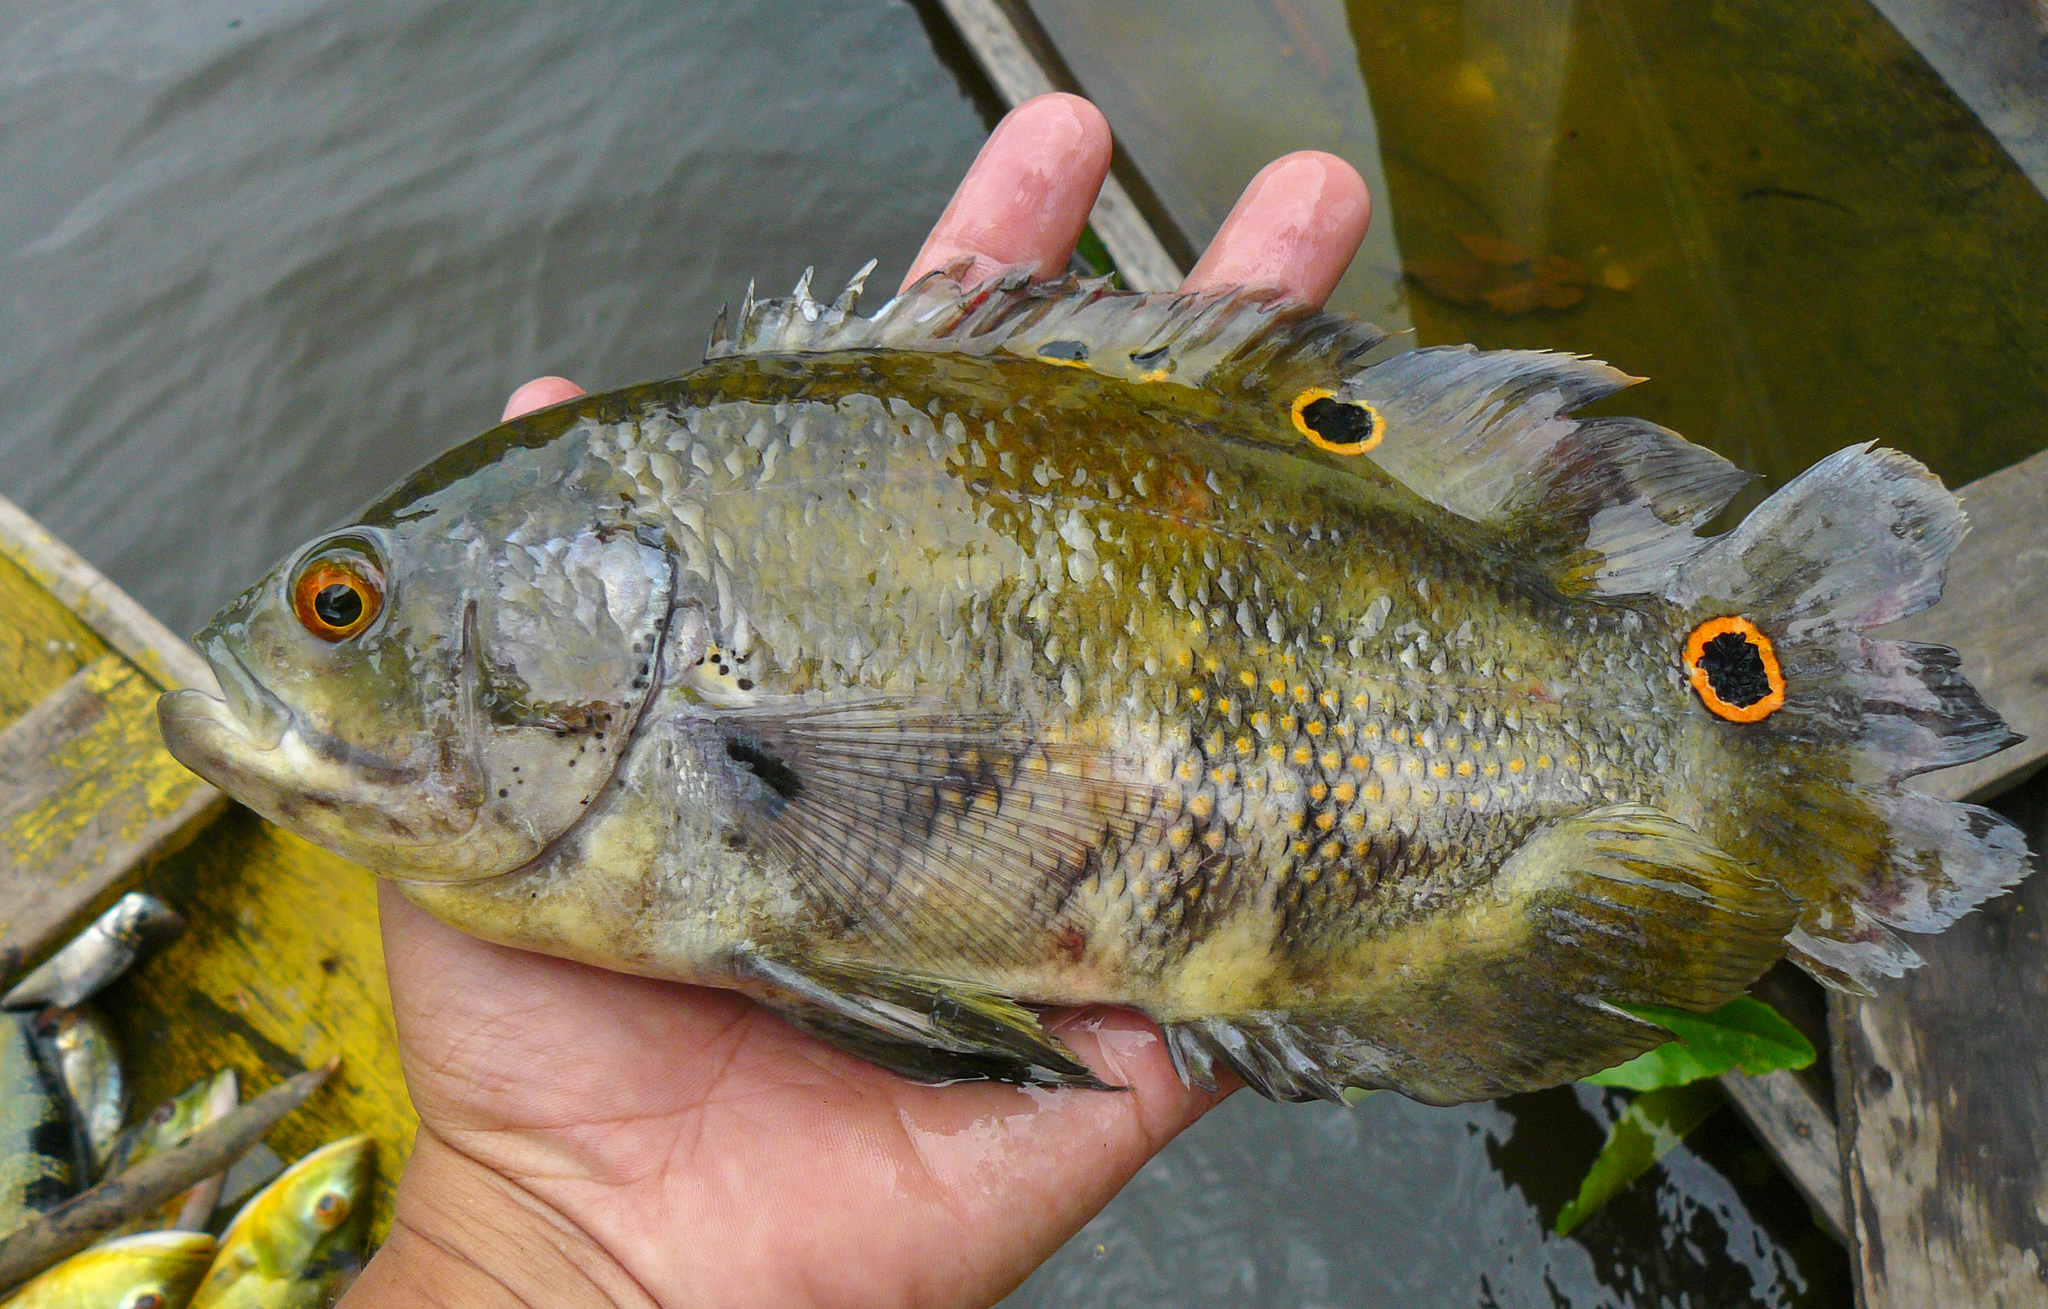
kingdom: Animalia
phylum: Chordata
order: Perciformes
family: Cichlidae
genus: Astronotus
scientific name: Astronotus ocellatus
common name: Oscar
